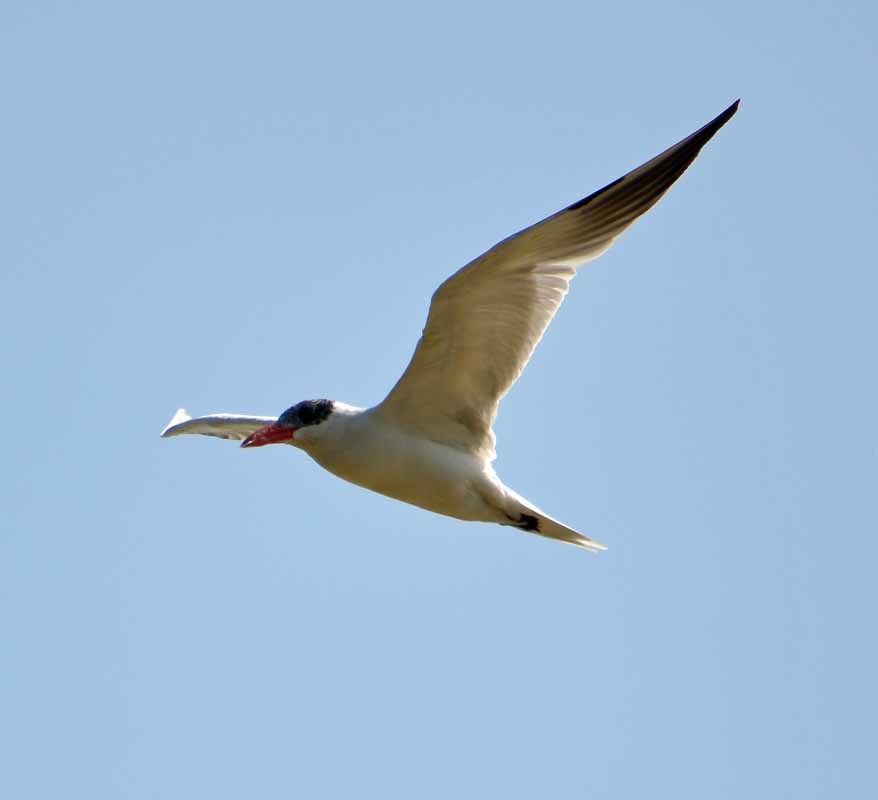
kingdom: Animalia
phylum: Chordata
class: Aves
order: Charadriiformes
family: Laridae
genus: Hydroprogne
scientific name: Hydroprogne caspia
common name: Caspian tern
